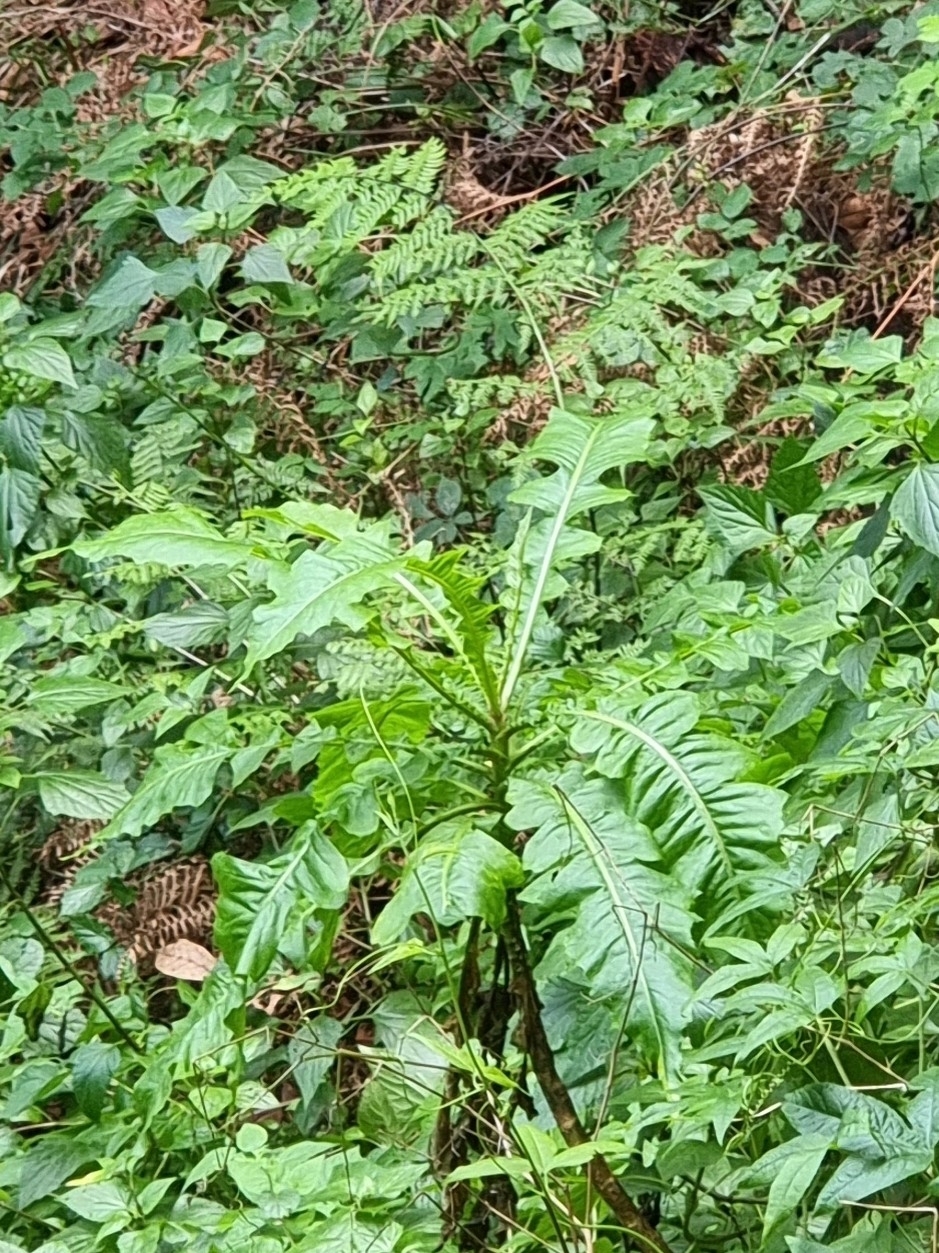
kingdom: Plantae
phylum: Tracheophyta
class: Magnoliopsida
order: Asterales
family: Asteraceae
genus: Sonchus
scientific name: Sonchus fruticosus
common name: Shrubby sow-thistle
